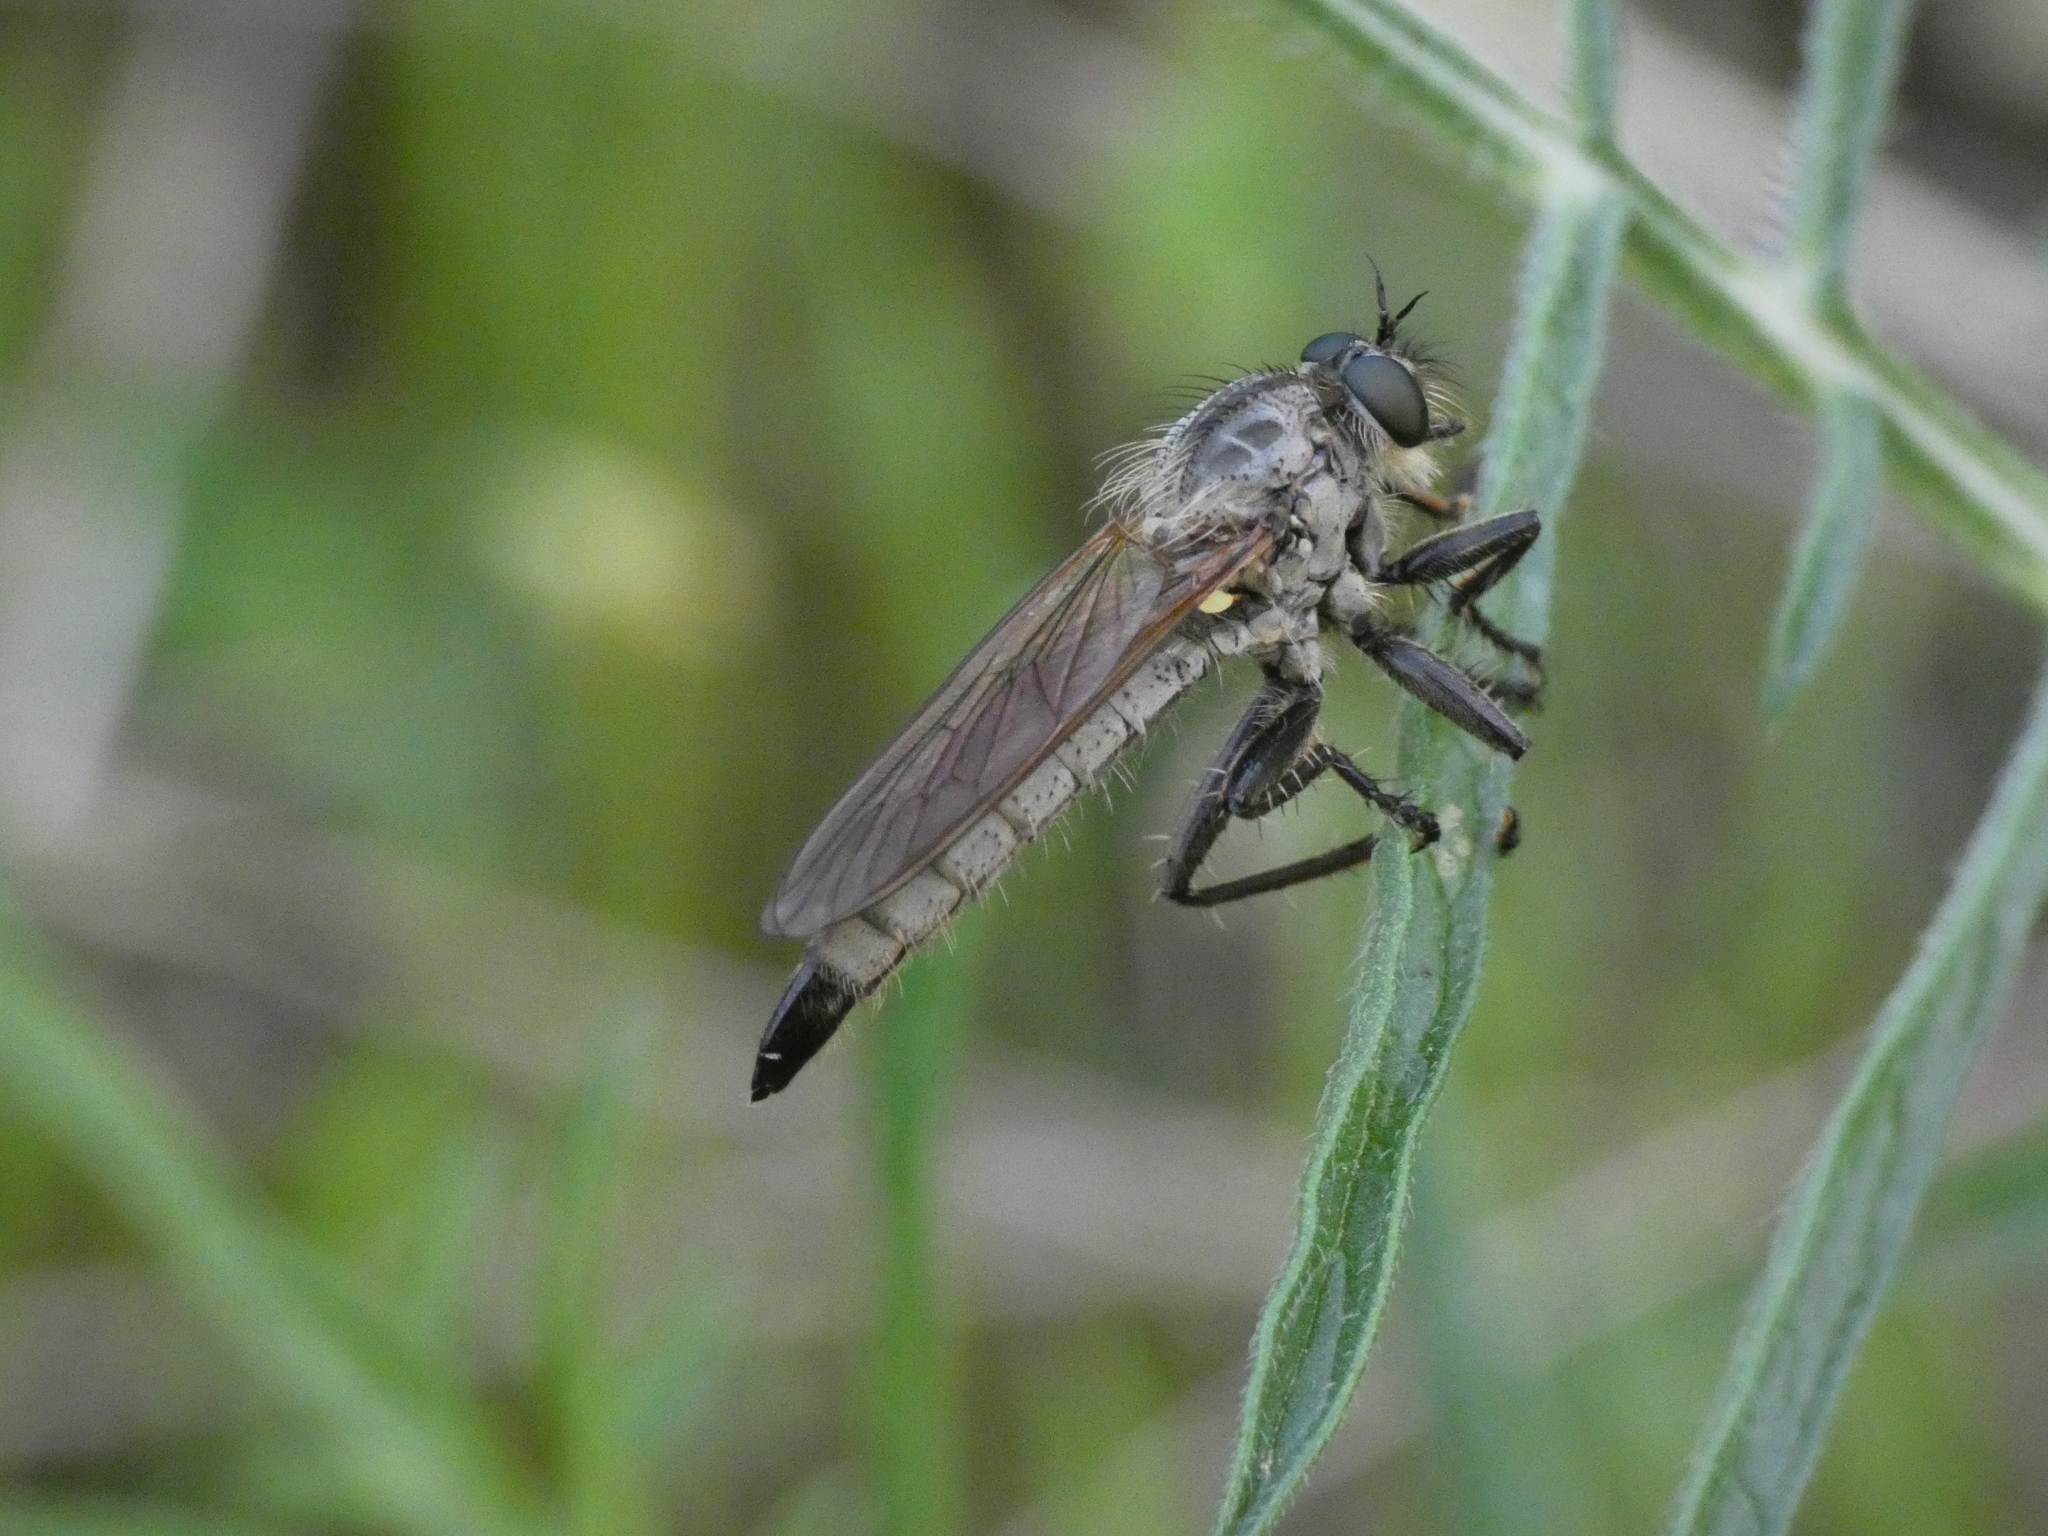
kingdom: Animalia
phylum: Arthropoda
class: Insecta
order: Diptera
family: Asilidae
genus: Dysmachus
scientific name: Dysmachus fuscipennis
